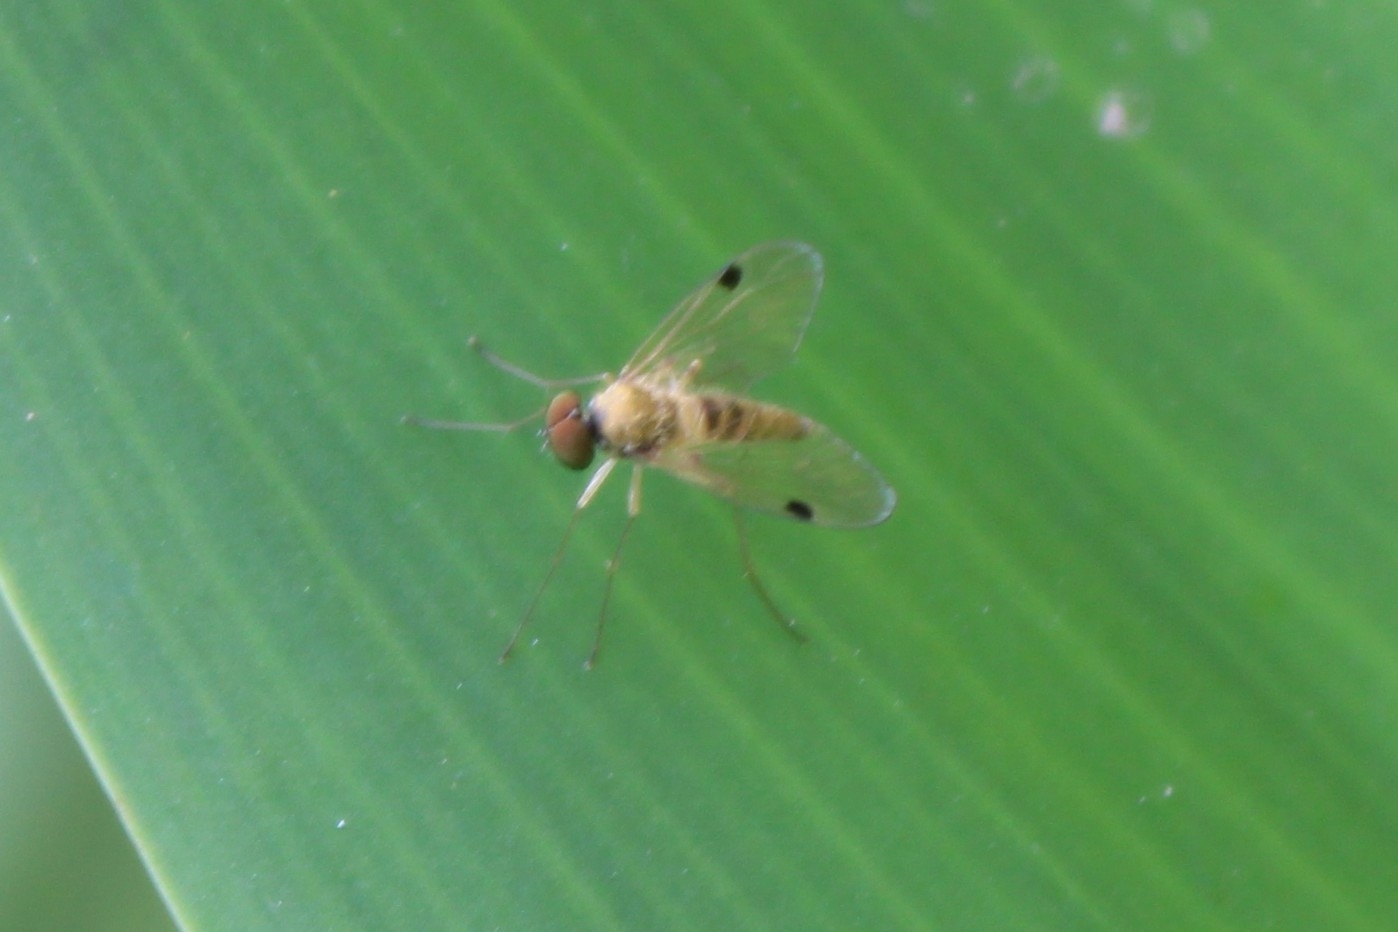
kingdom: Animalia
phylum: Arthropoda
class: Insecta
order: Diptera
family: Rhagionidae
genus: Chrysopilus
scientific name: Chrysopilus modestus
